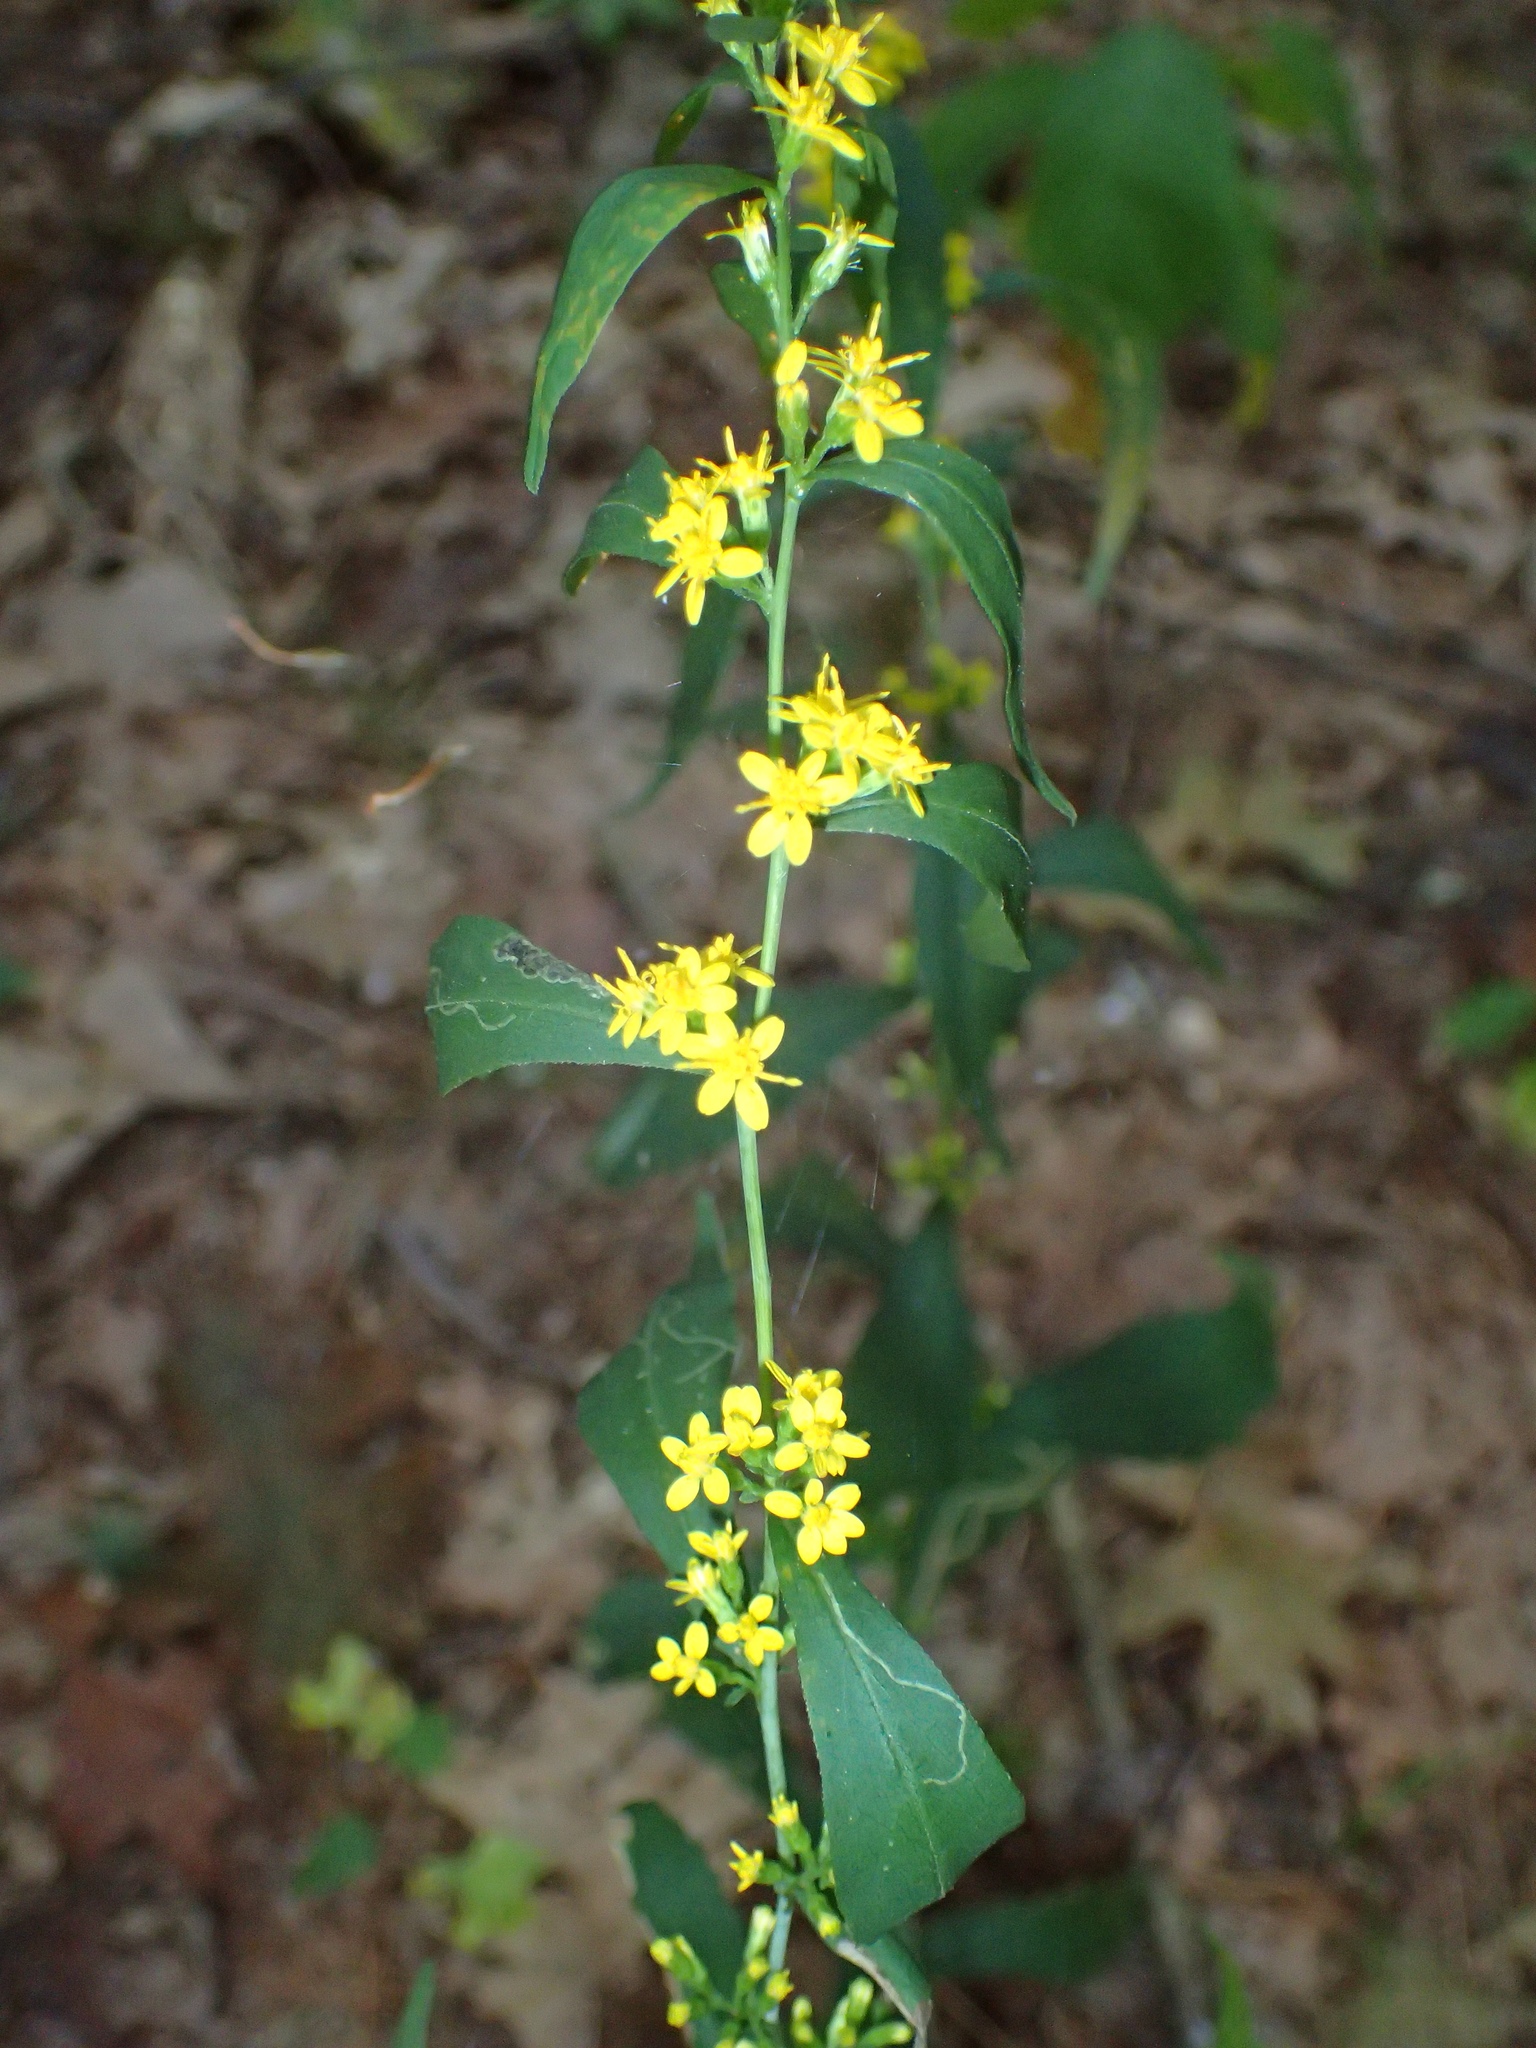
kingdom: Plantae
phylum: Tracheophyta
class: Magnoliopsida
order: Asterales
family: Asteraceae
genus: Solidago
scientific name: Solidago caesia
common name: Woodland goldenrod
